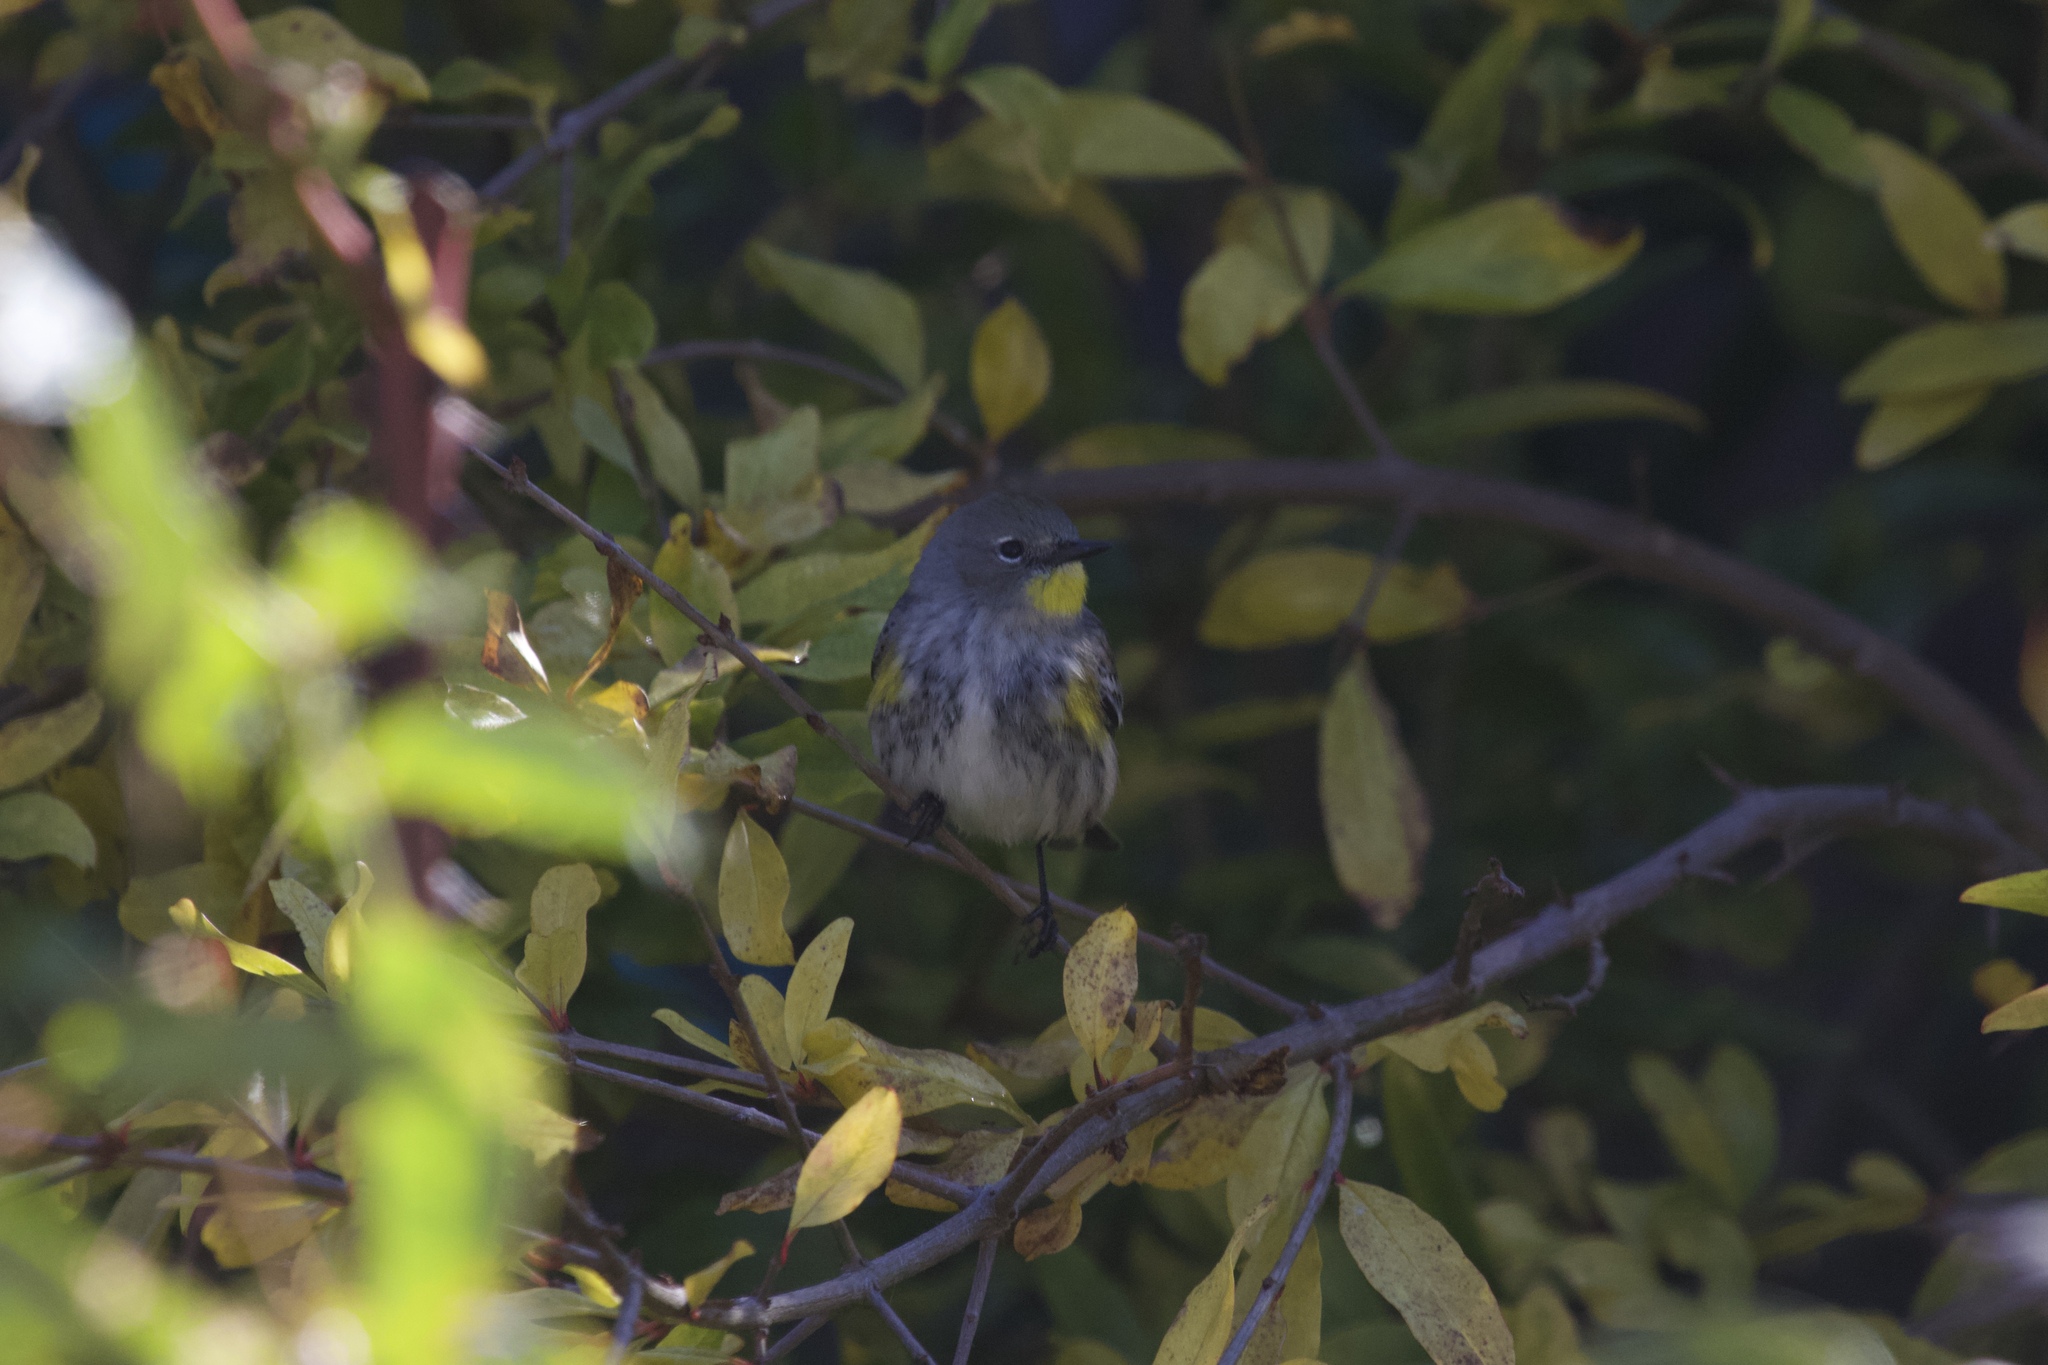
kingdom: Animalia
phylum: Chordata
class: Aves
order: Passeriformes
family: Parulidae
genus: Setophaga
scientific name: Setophaga coronata
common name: Myrtle warbler
